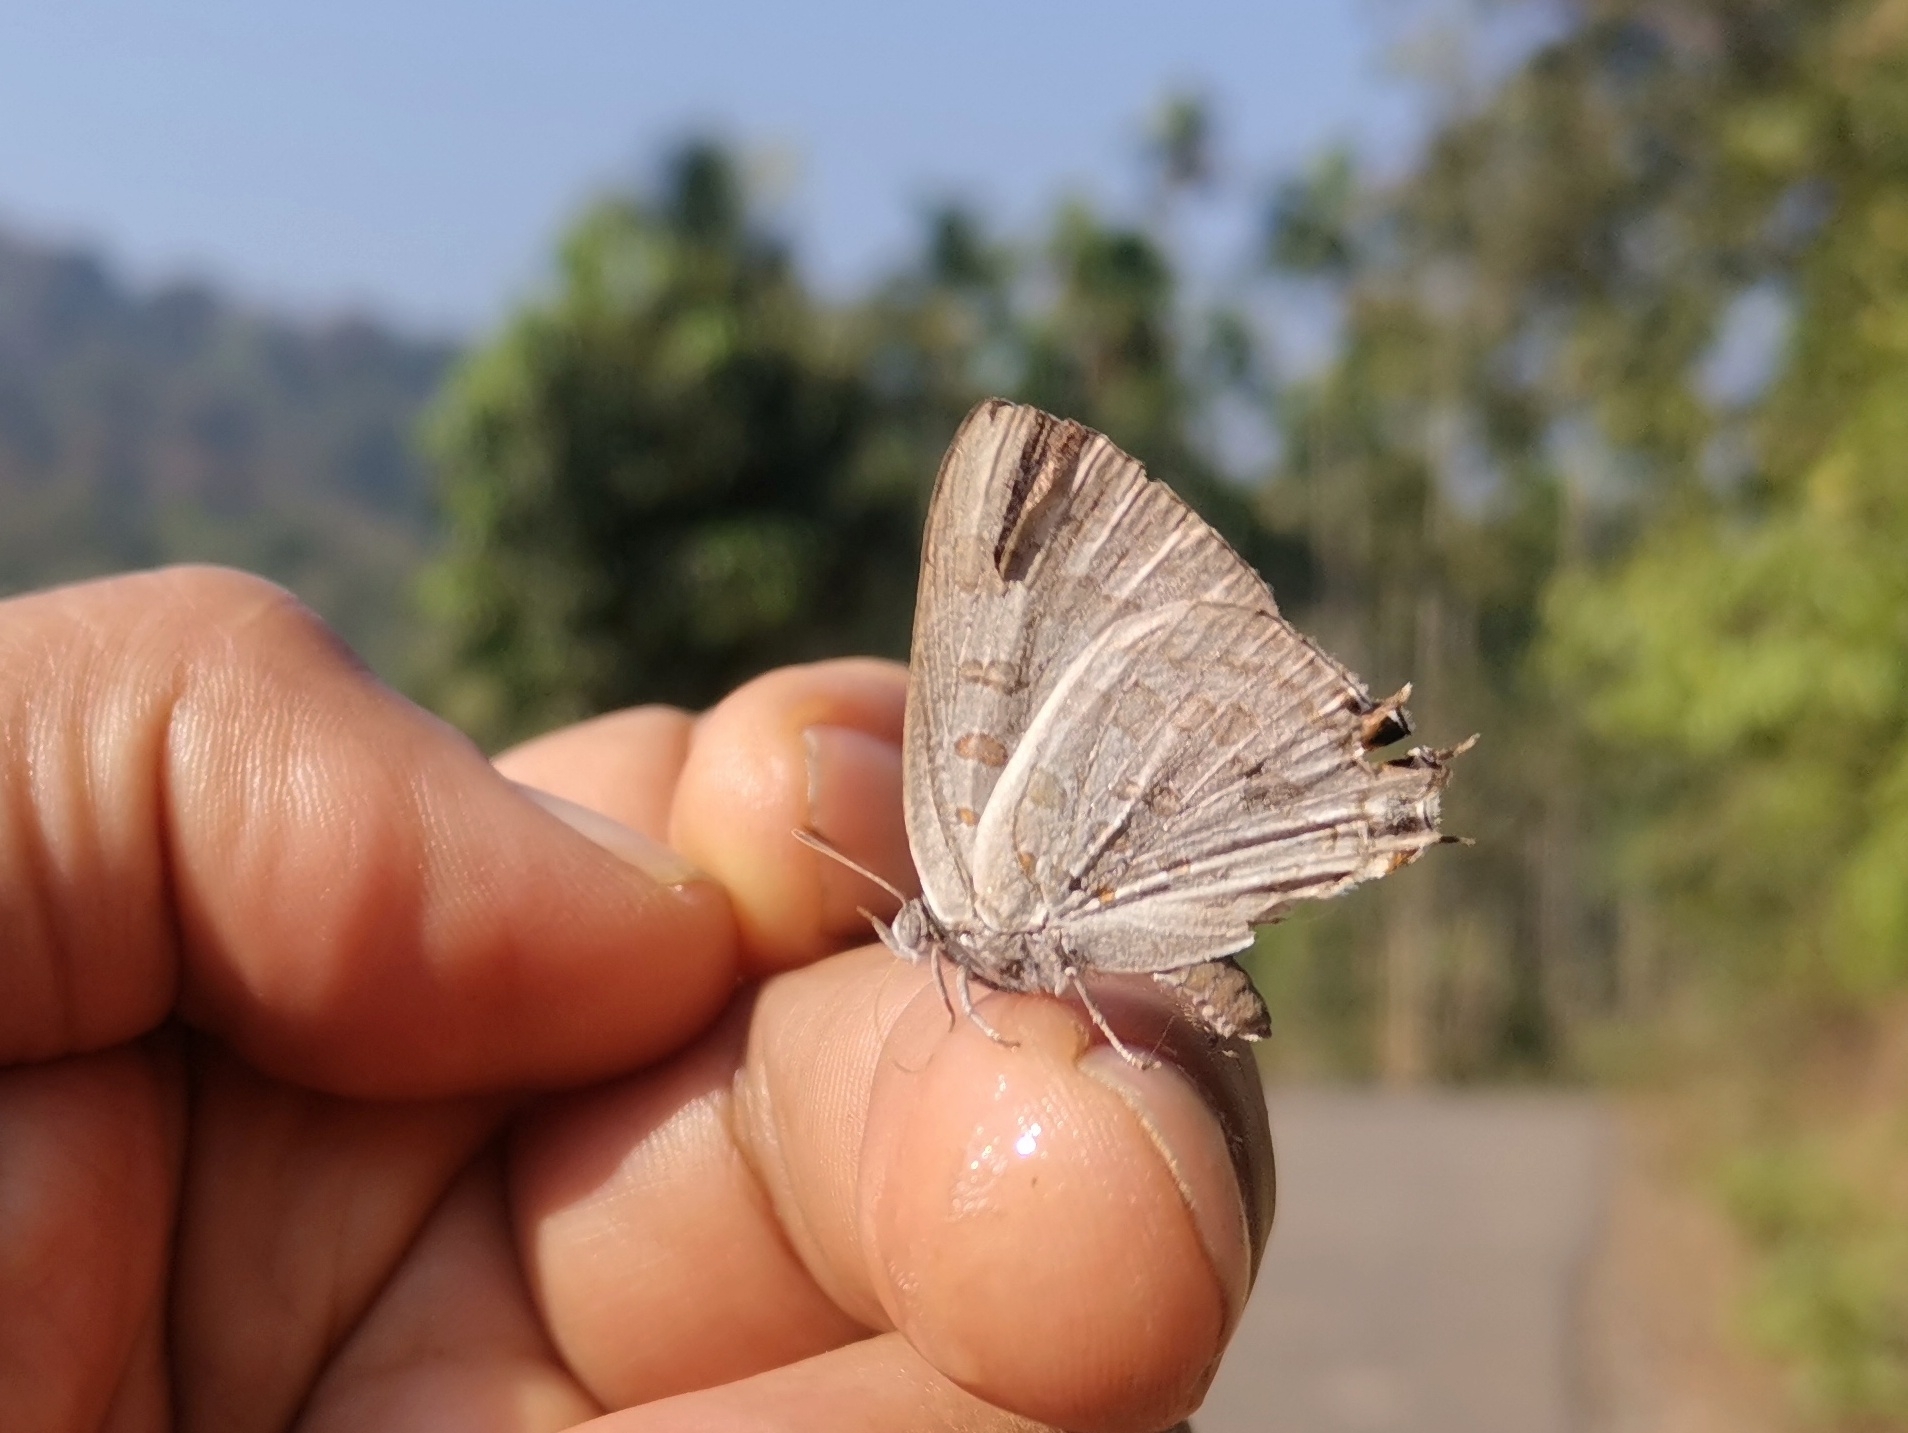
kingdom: Animalia
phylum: Arthropoda
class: Insecta
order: Lepidoptera
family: Lycaenidae
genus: Zesius
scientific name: Zesius chrysomallus
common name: Redspot
